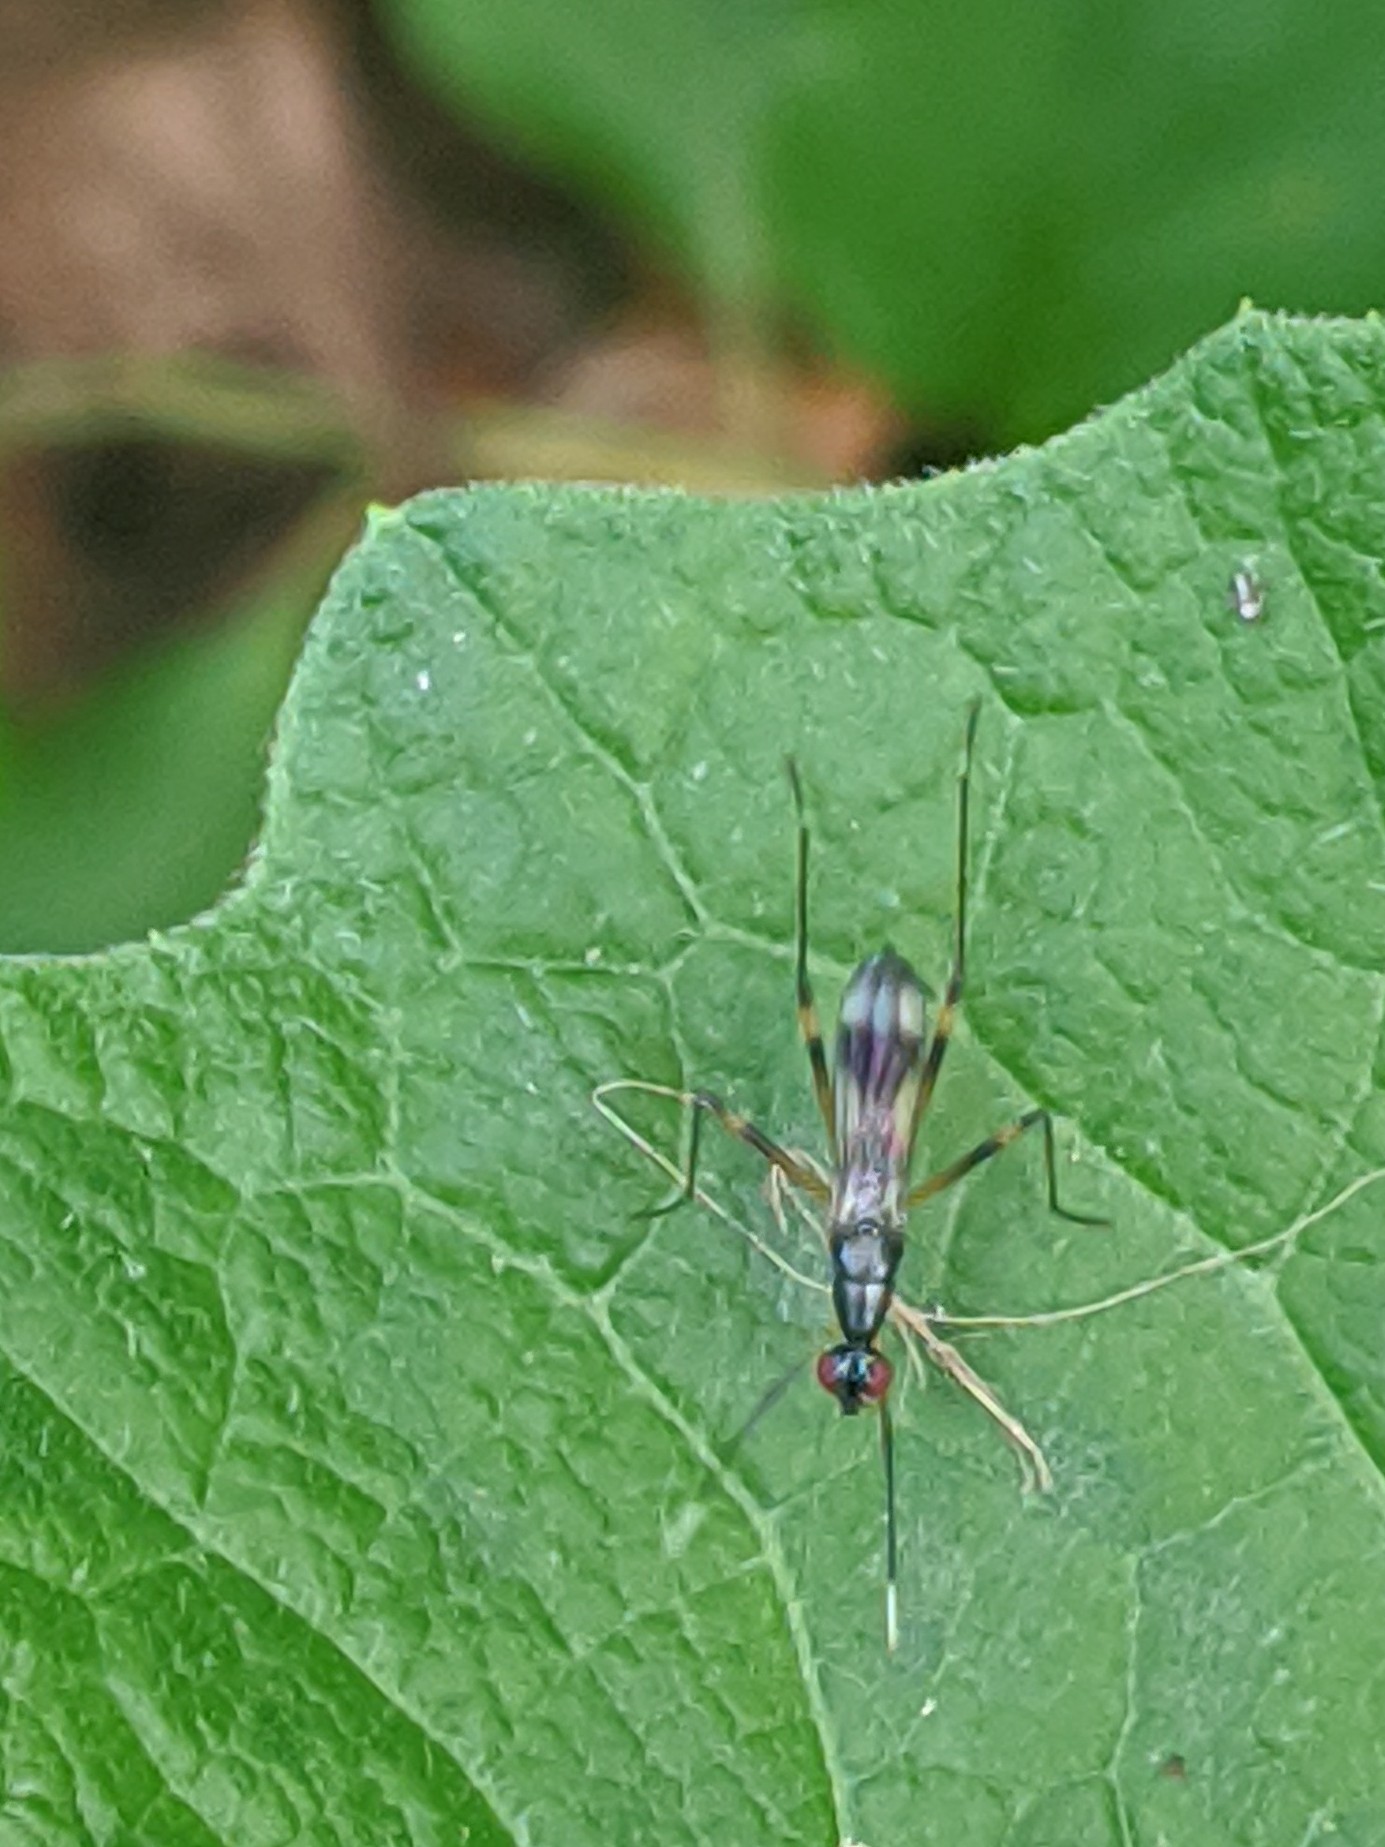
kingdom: Animalia
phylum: Arthropoda
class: Insecta
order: Diptera
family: Micropezidae
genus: Rainieria
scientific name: Rainieria antennaepes
